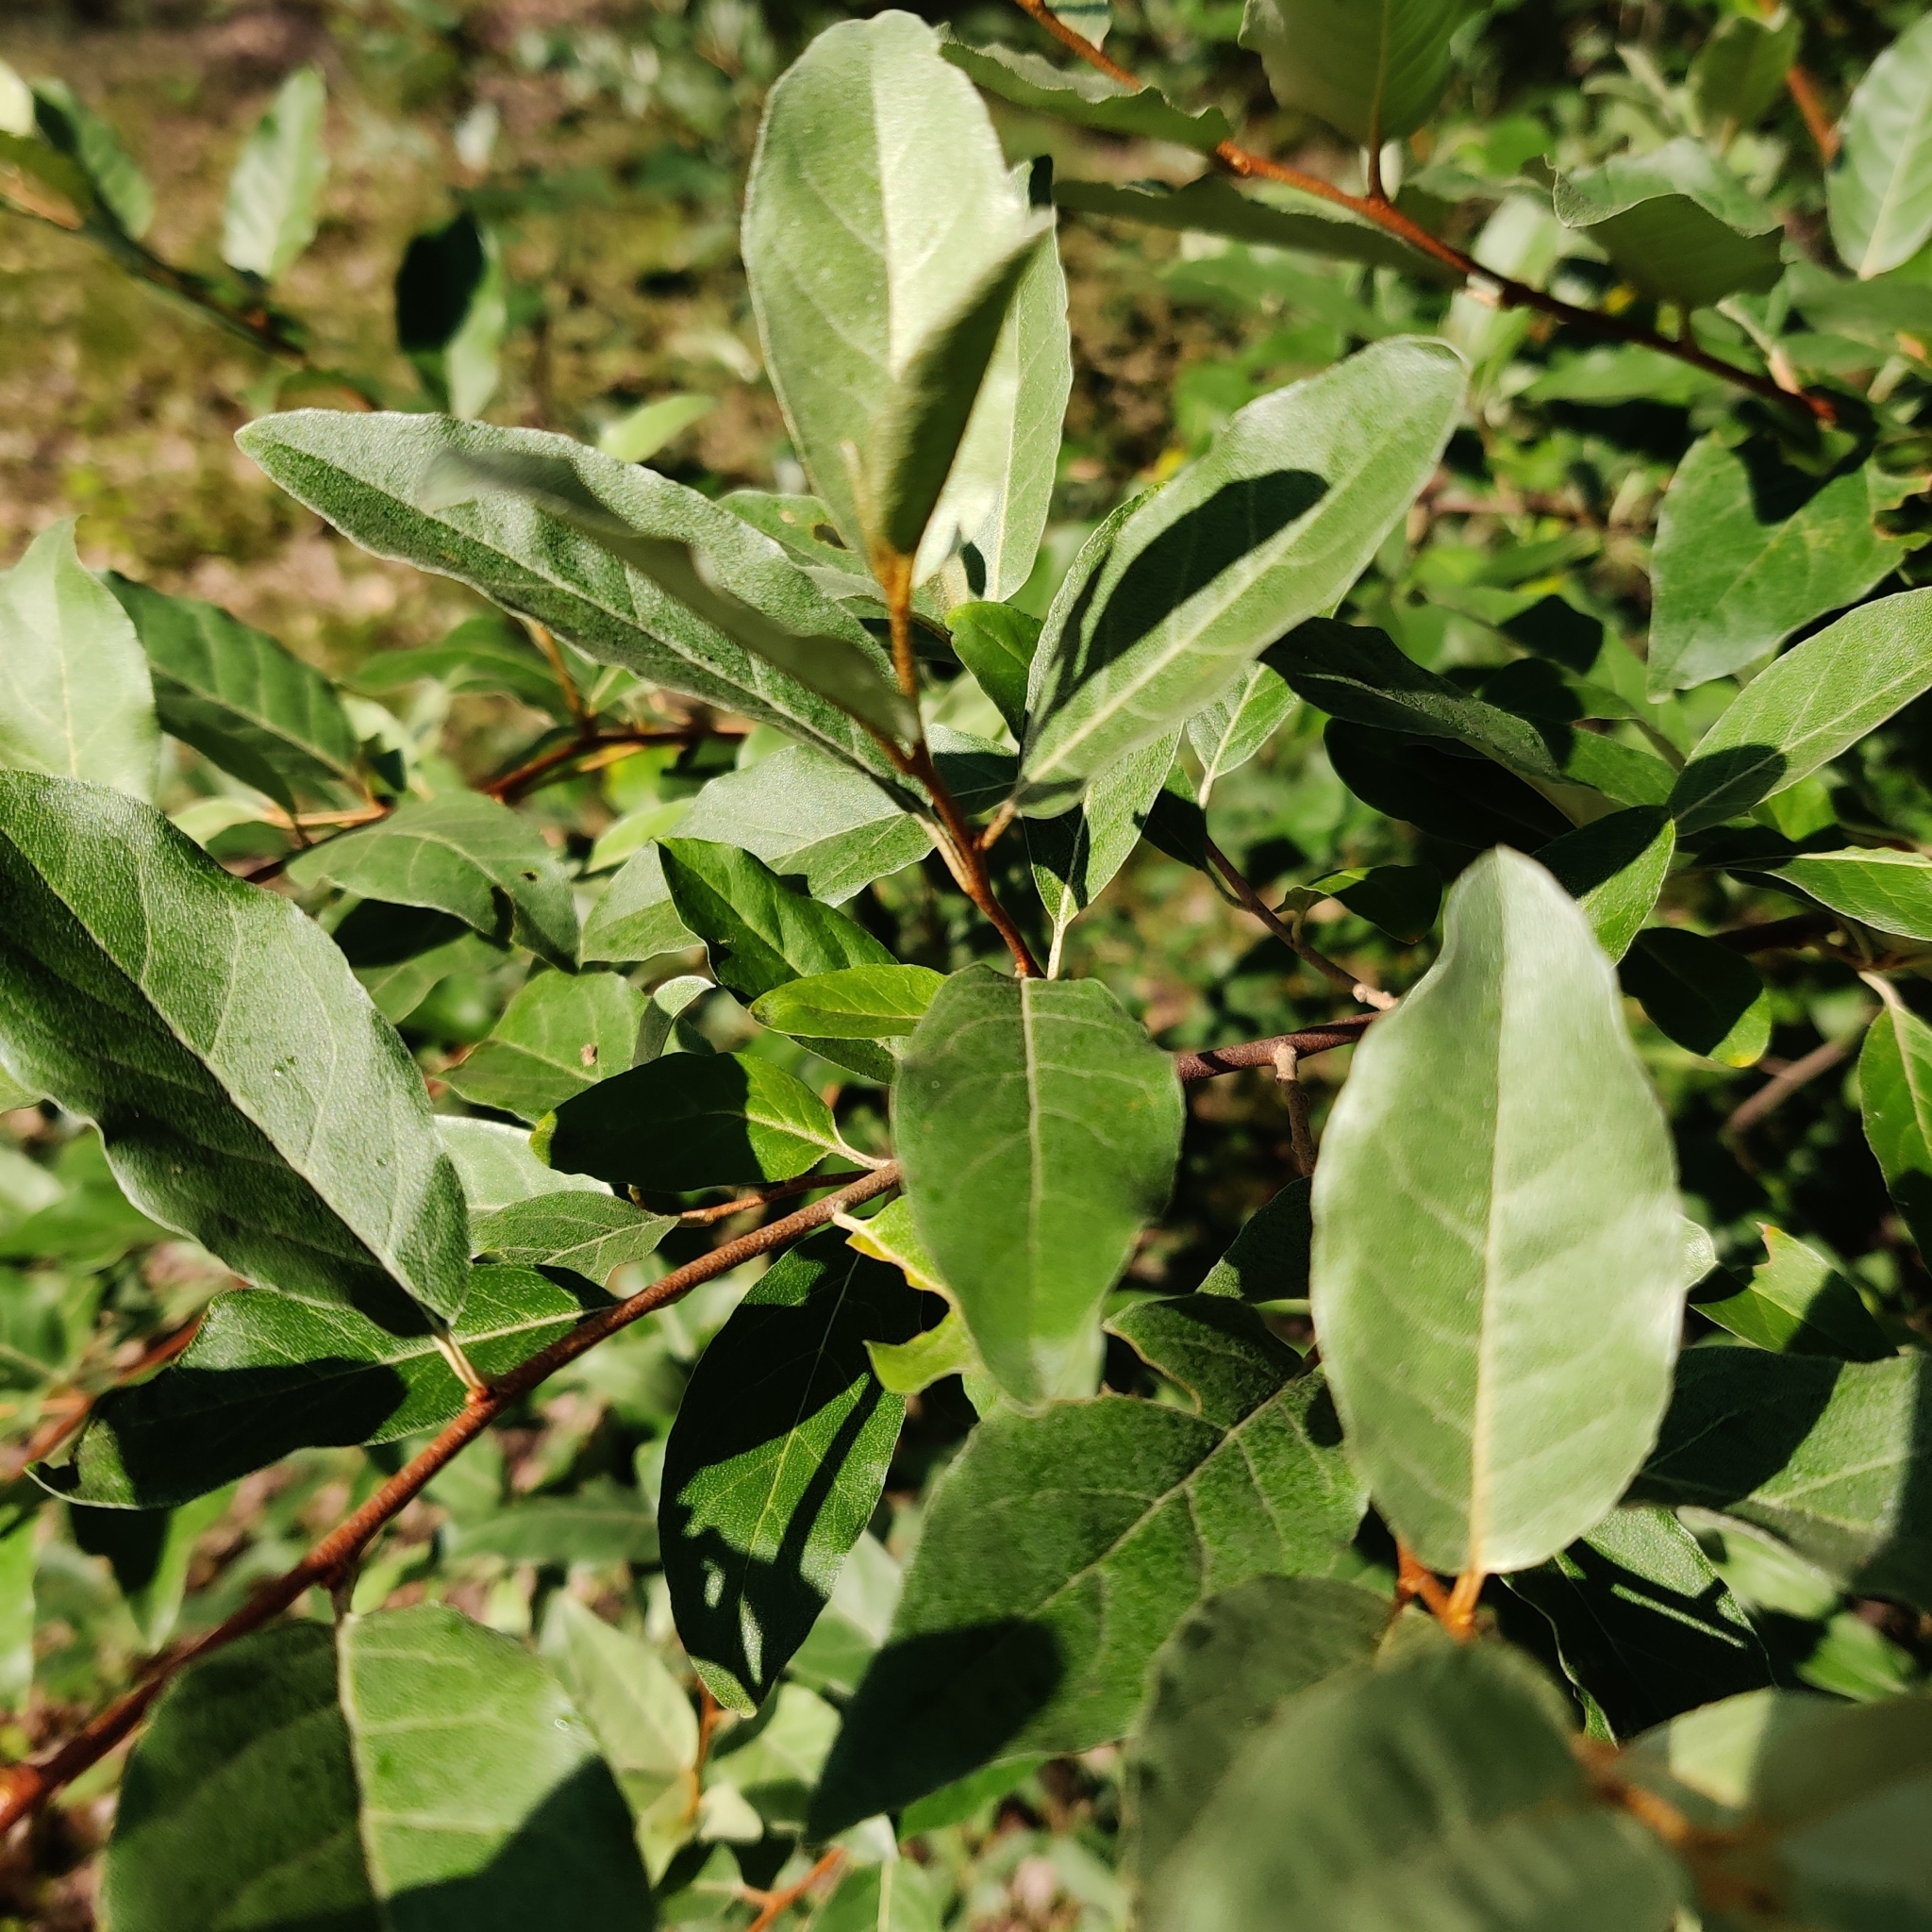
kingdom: Plantae
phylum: Tracheophyta
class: Magnoliopsida
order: Rosales
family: Elaeagnaceae
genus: Elaeagnus
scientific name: Elaeagnus umbellata
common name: Autumn olive
